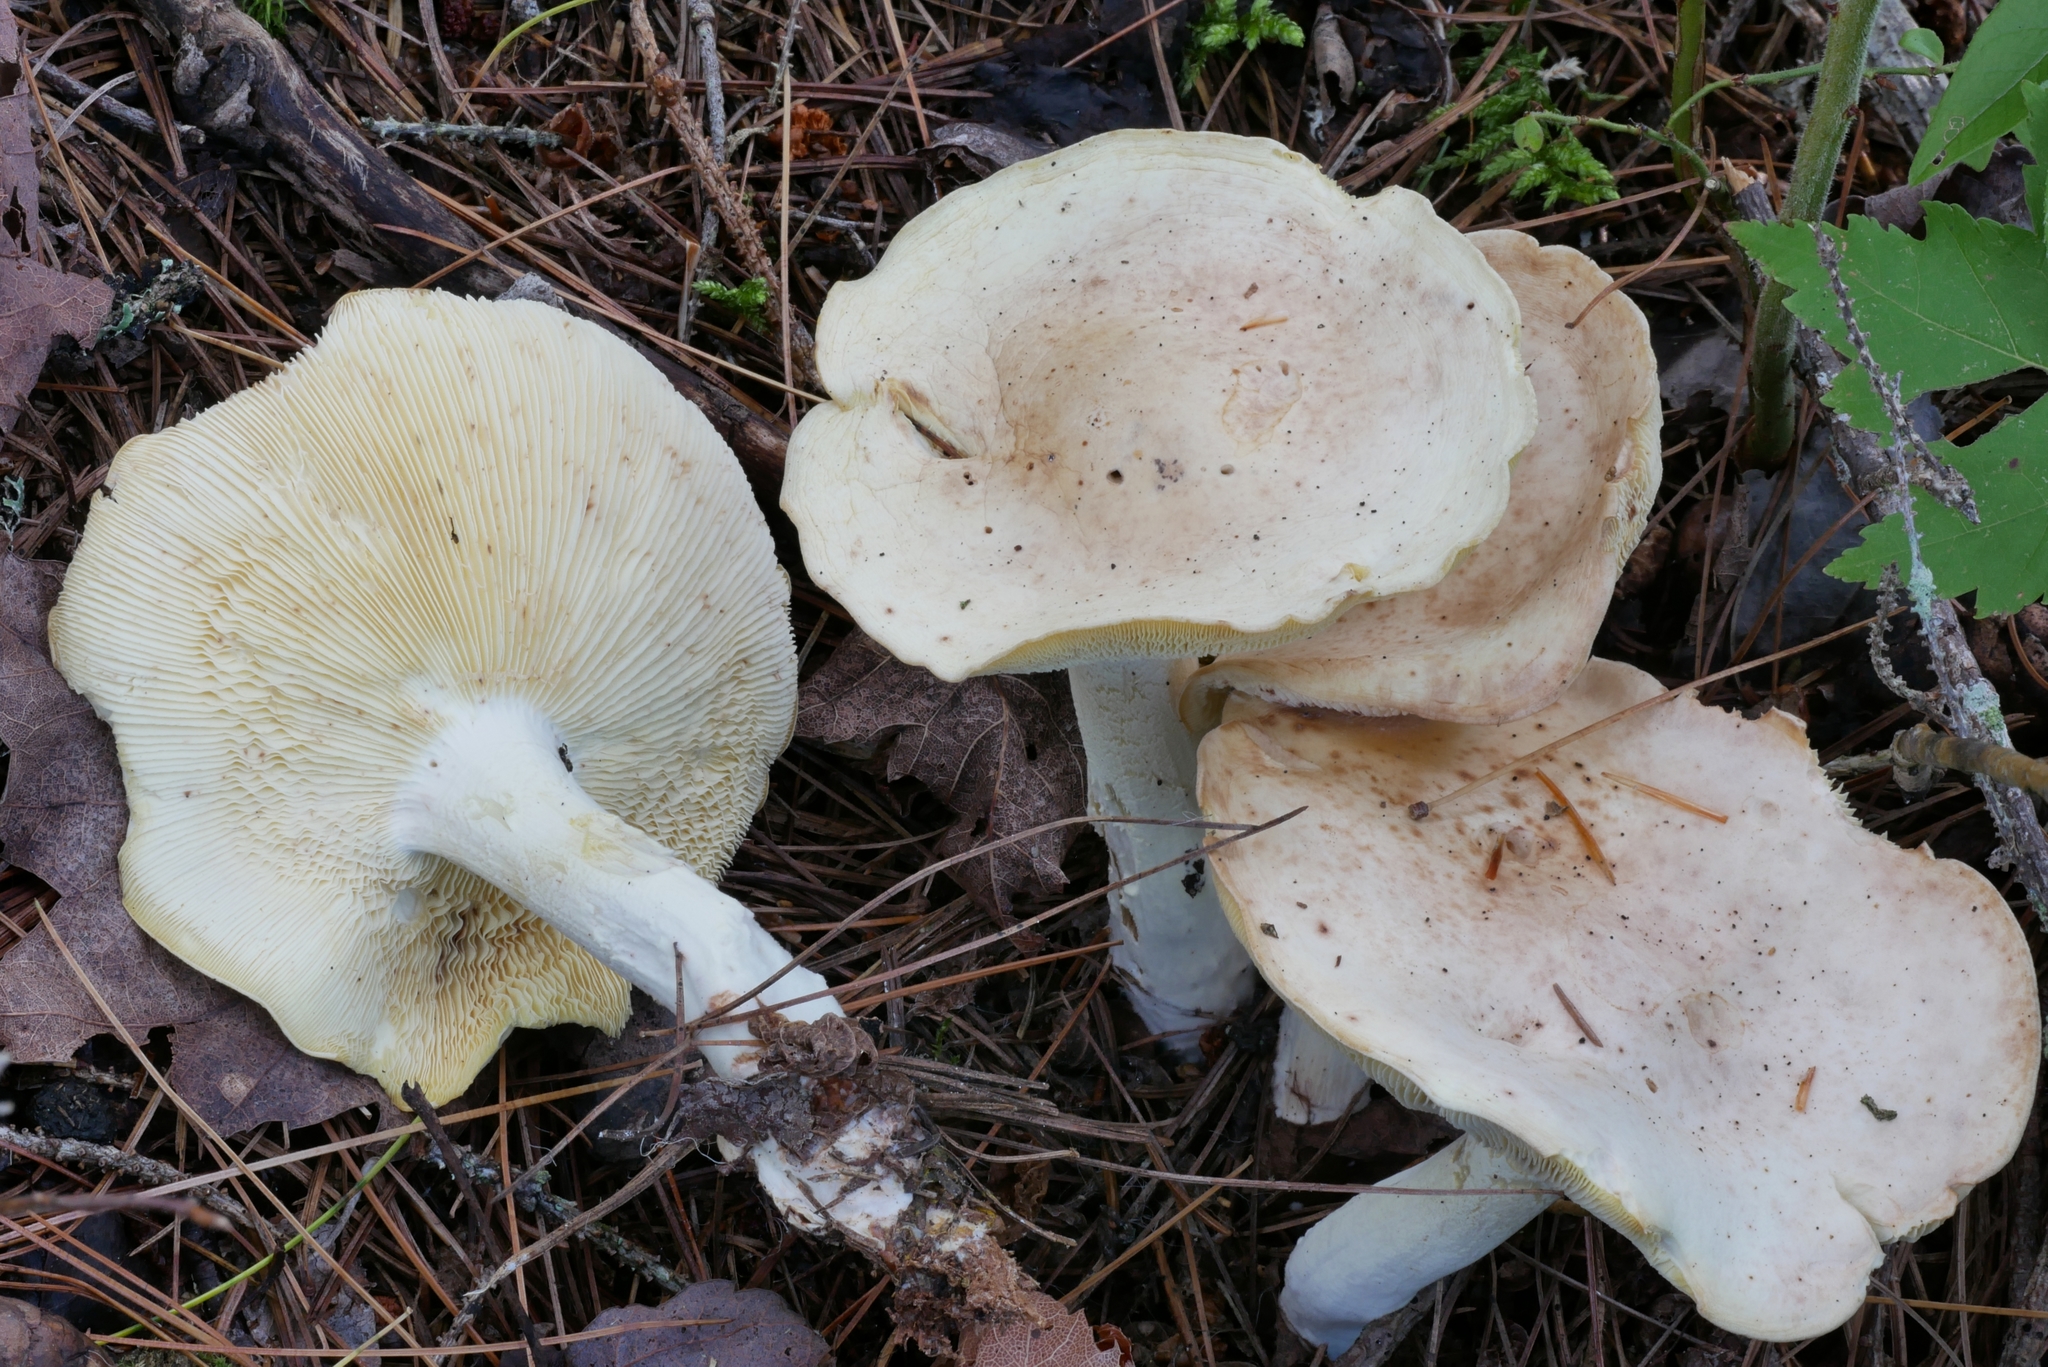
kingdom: Fungi
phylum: Basidiomycota
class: Agaricomycetes
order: Agaricales
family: Omphalotaceae
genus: Rhodocollybia
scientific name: Rhodocollybia maculata
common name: Spotted tough-shank
